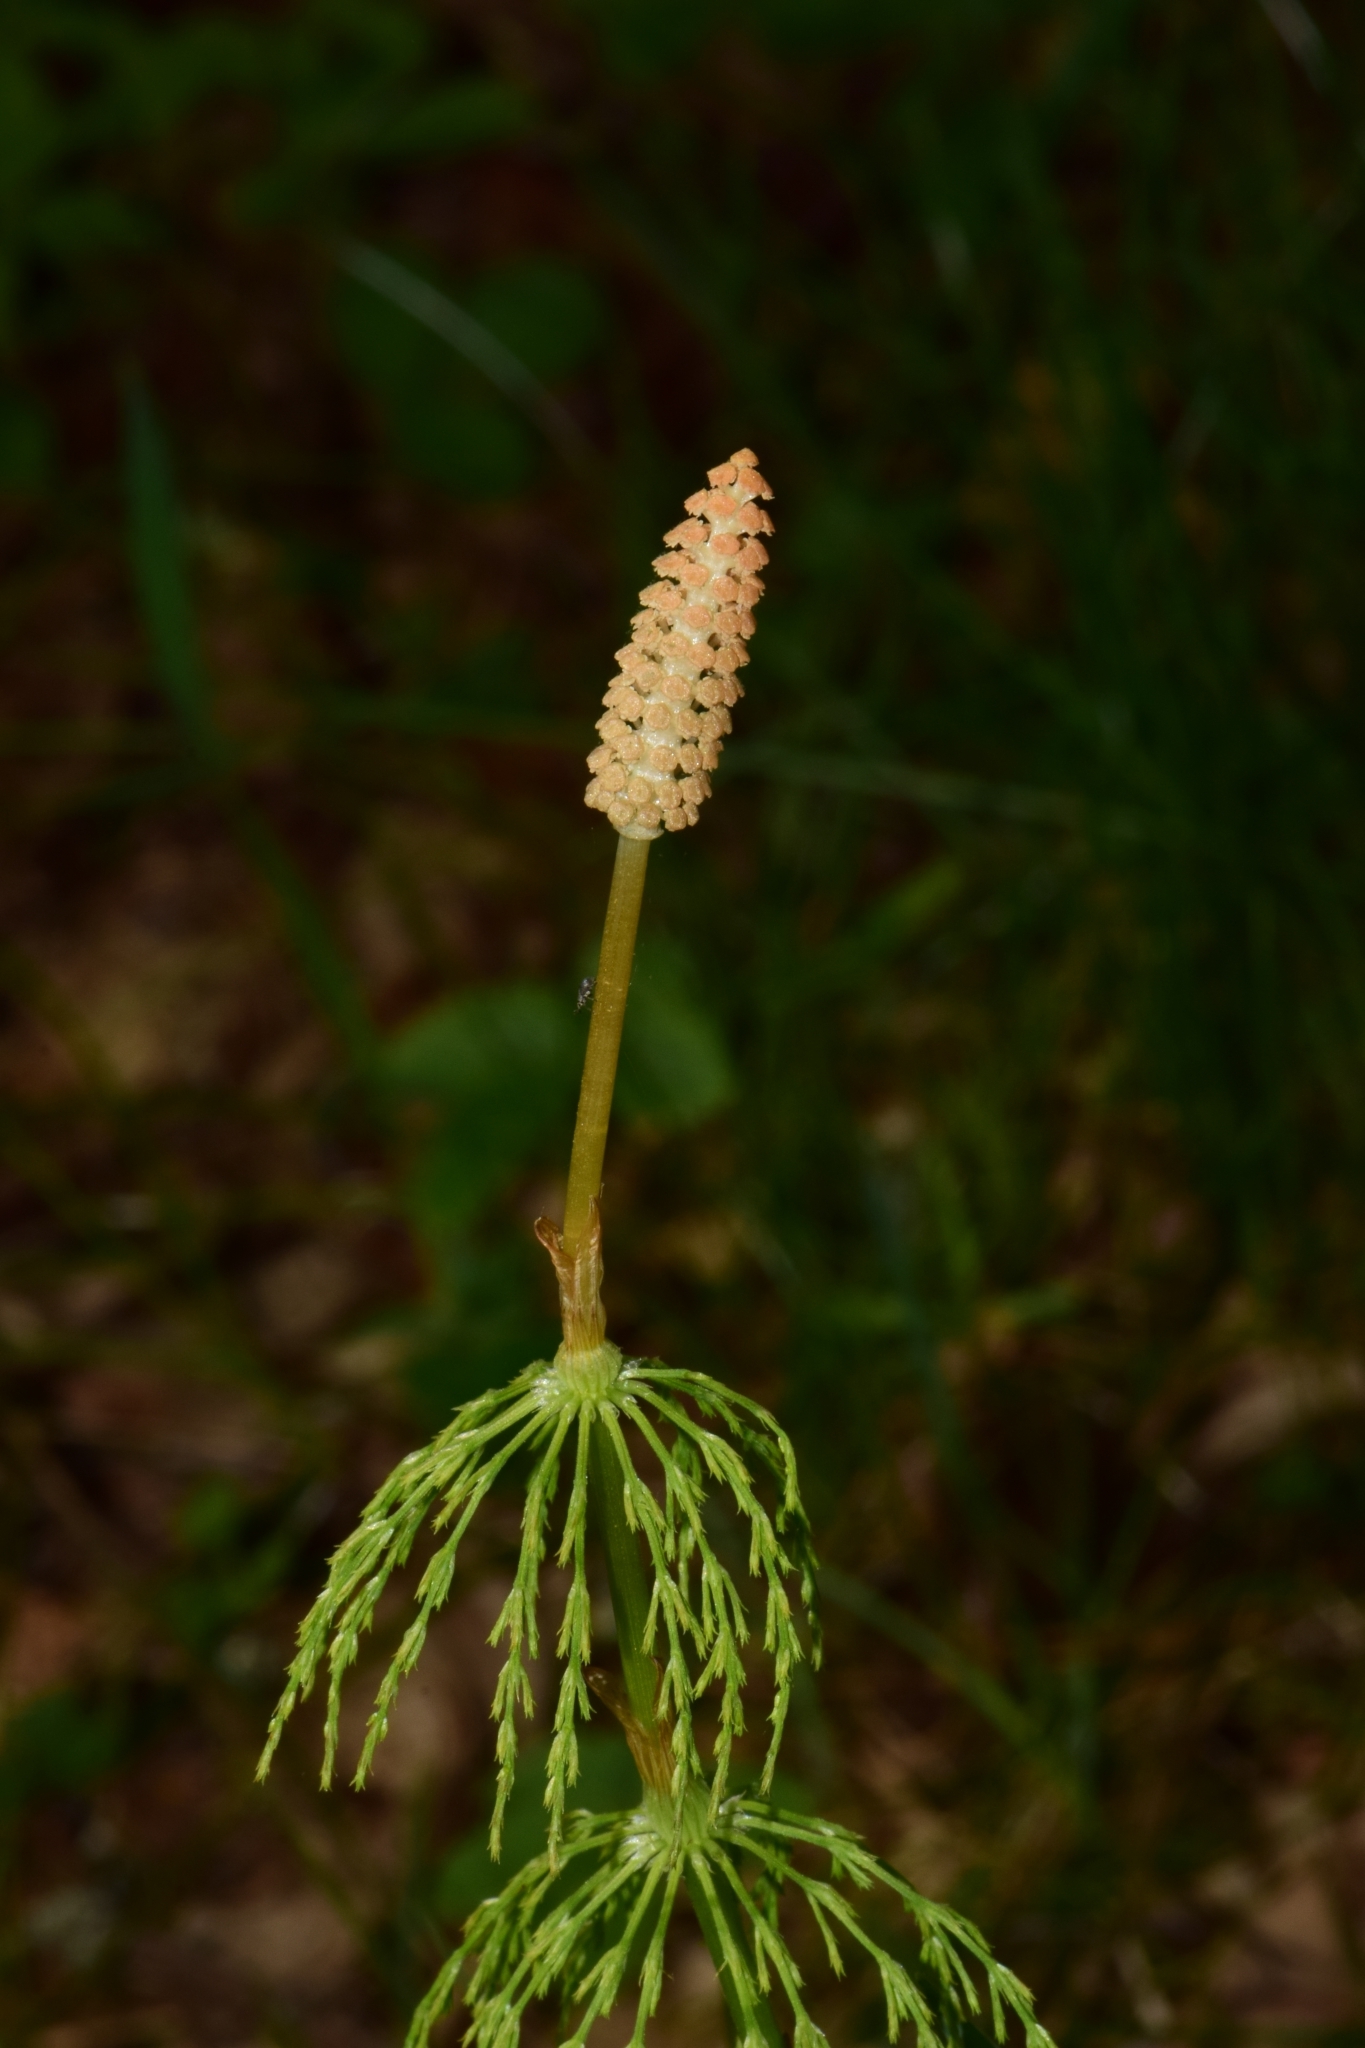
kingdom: Plantae
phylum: Tracheophyta
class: Polypodiopsida
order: Equisetales
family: Equisetaceae
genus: Equisetum
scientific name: Equisetum sylvaticum
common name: Wood horsetail
